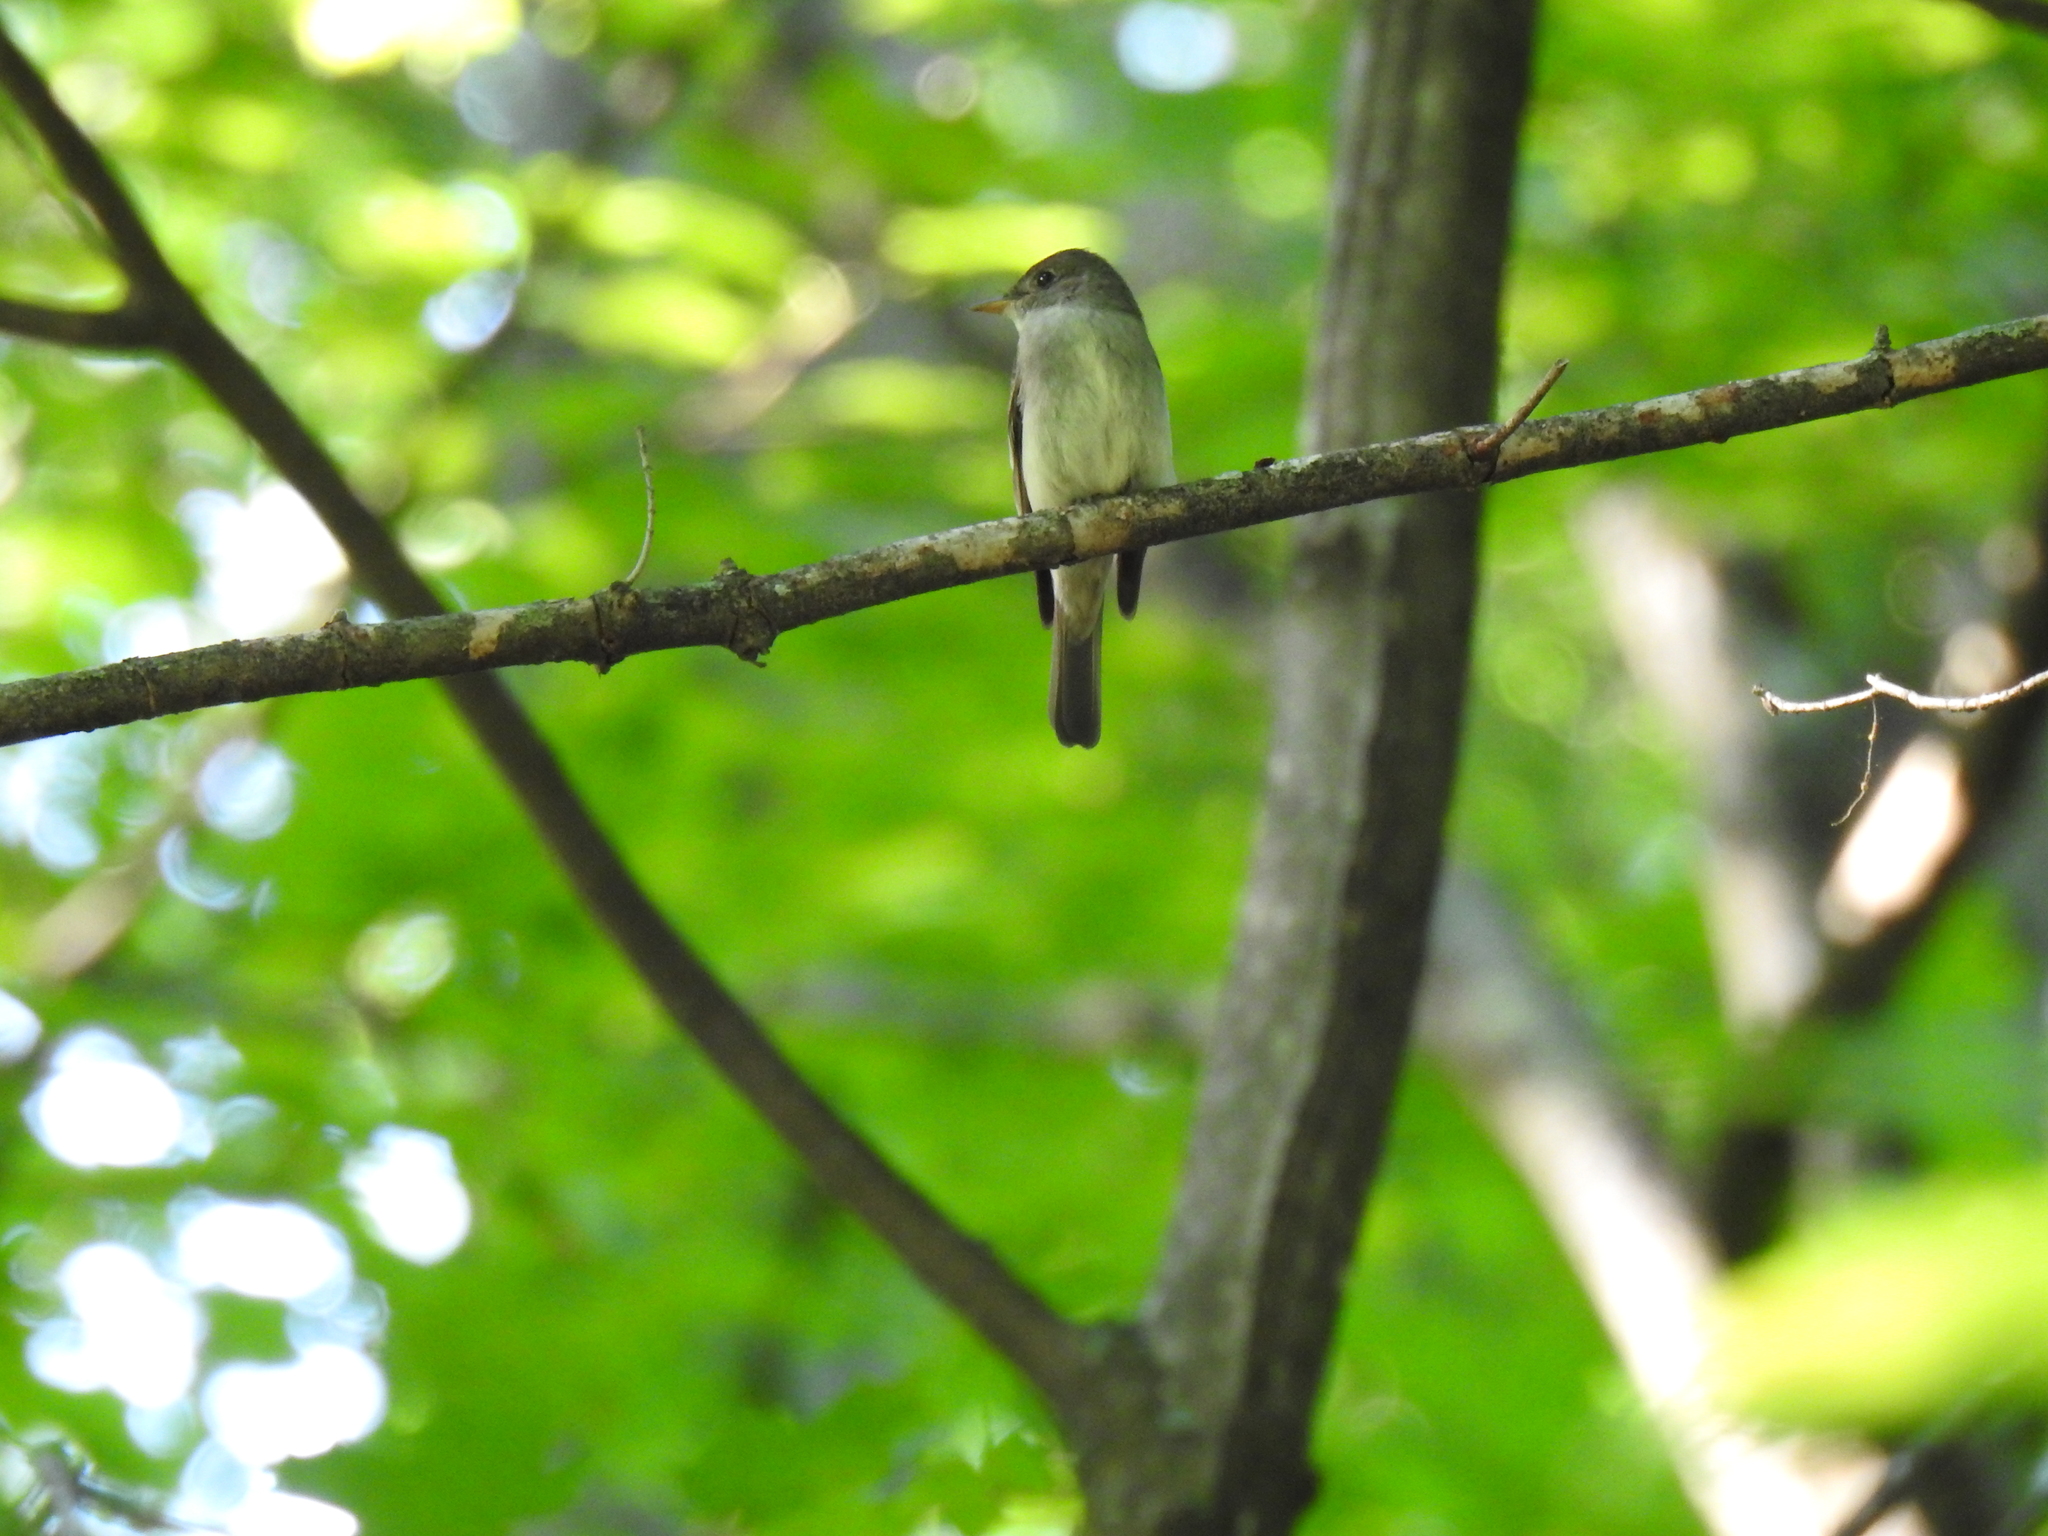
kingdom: Animalia
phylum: Chordata
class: Aves
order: Passeriformes
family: Tyrannidae
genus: Contopus
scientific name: Contopus virens
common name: Eastern wood-pewee
